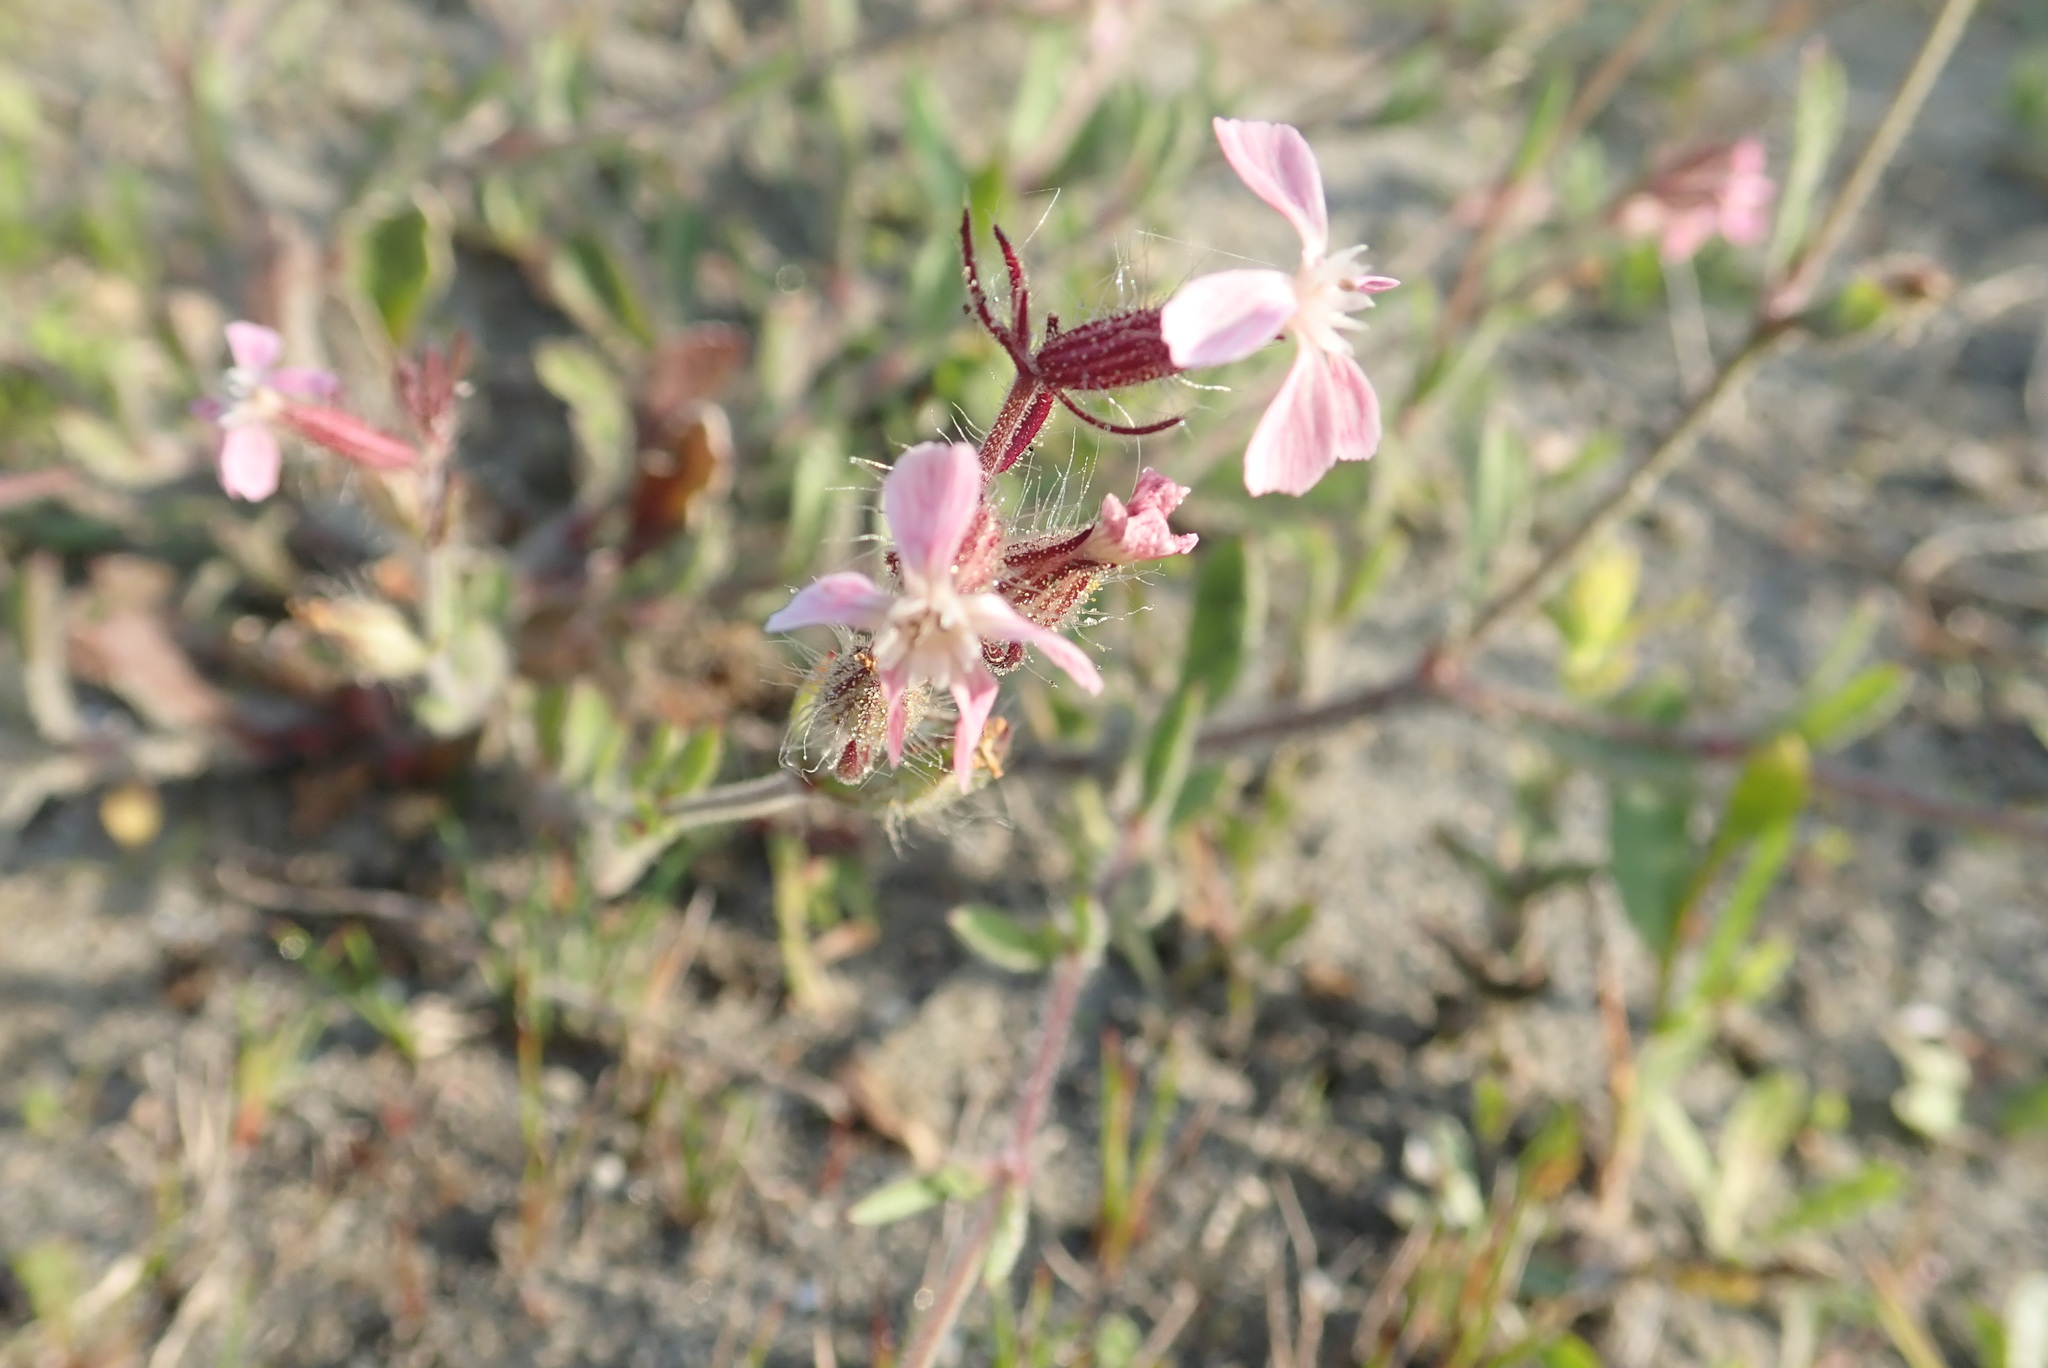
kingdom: Plantae
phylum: Tracheophyta
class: Magnoliopsida
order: Caryophyllales
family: Caryophyllaceae
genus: Silene
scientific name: Silene gallica
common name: Small-flowered catchfly
